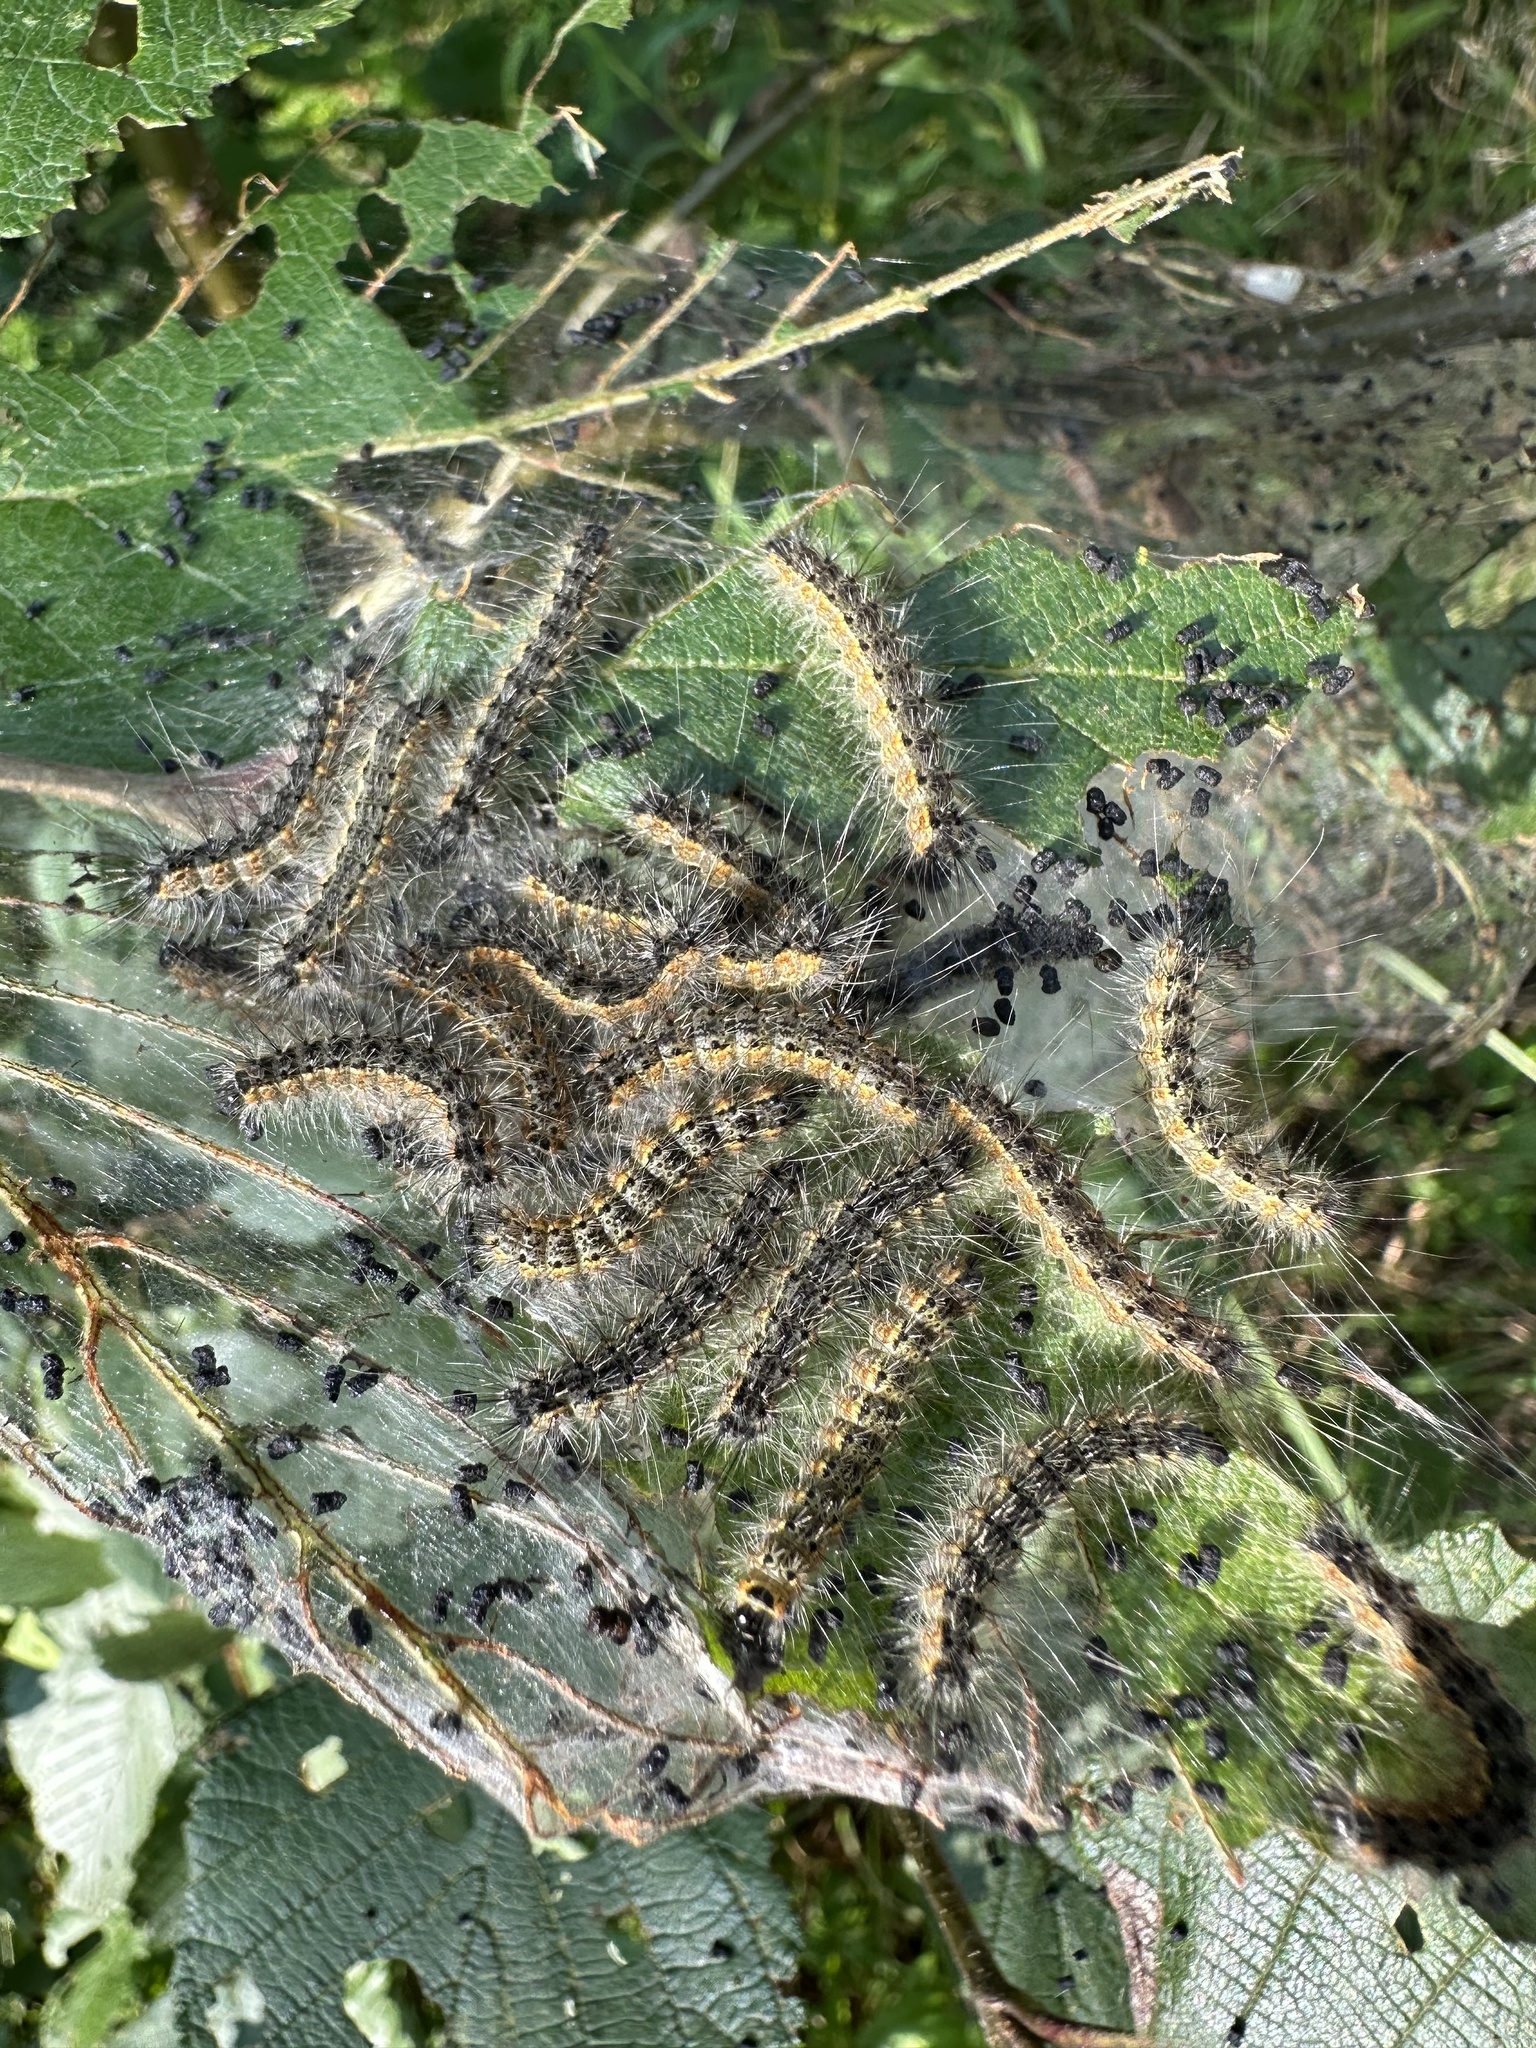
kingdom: Animalia
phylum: Arthropoda
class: Insecta
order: Lepidoptera
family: Erebidae
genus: Hyphantria
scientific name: Hyphantria cunea
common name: American white moth
